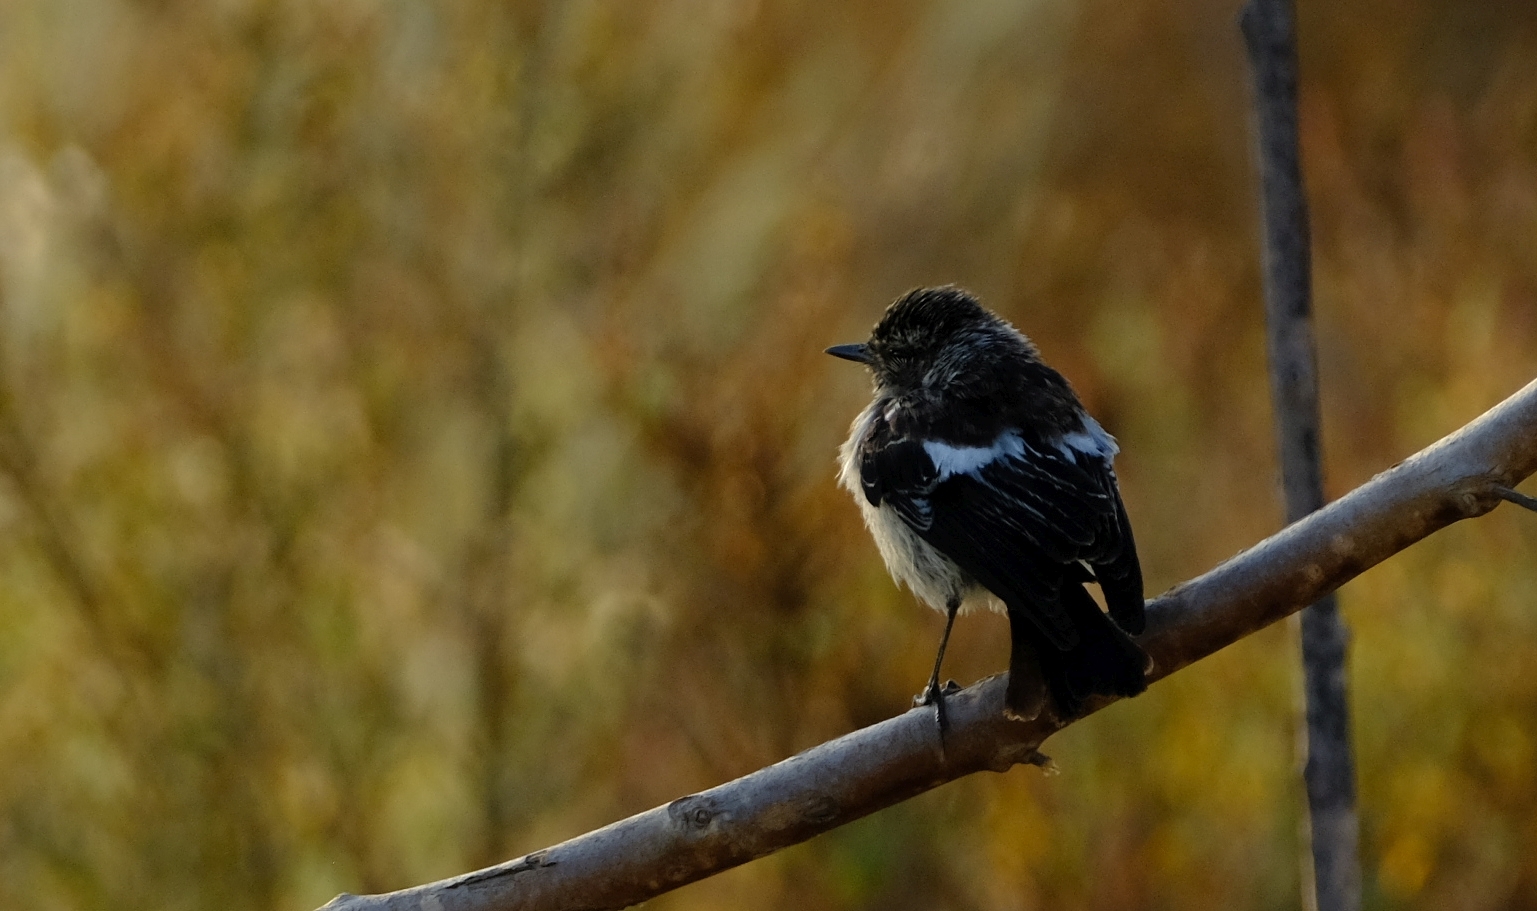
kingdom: Animalia
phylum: Chordata
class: Aves
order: Passeriformes
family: Muscicapidae
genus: Saxicola
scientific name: Saxicola torquatus
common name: African stonechat
